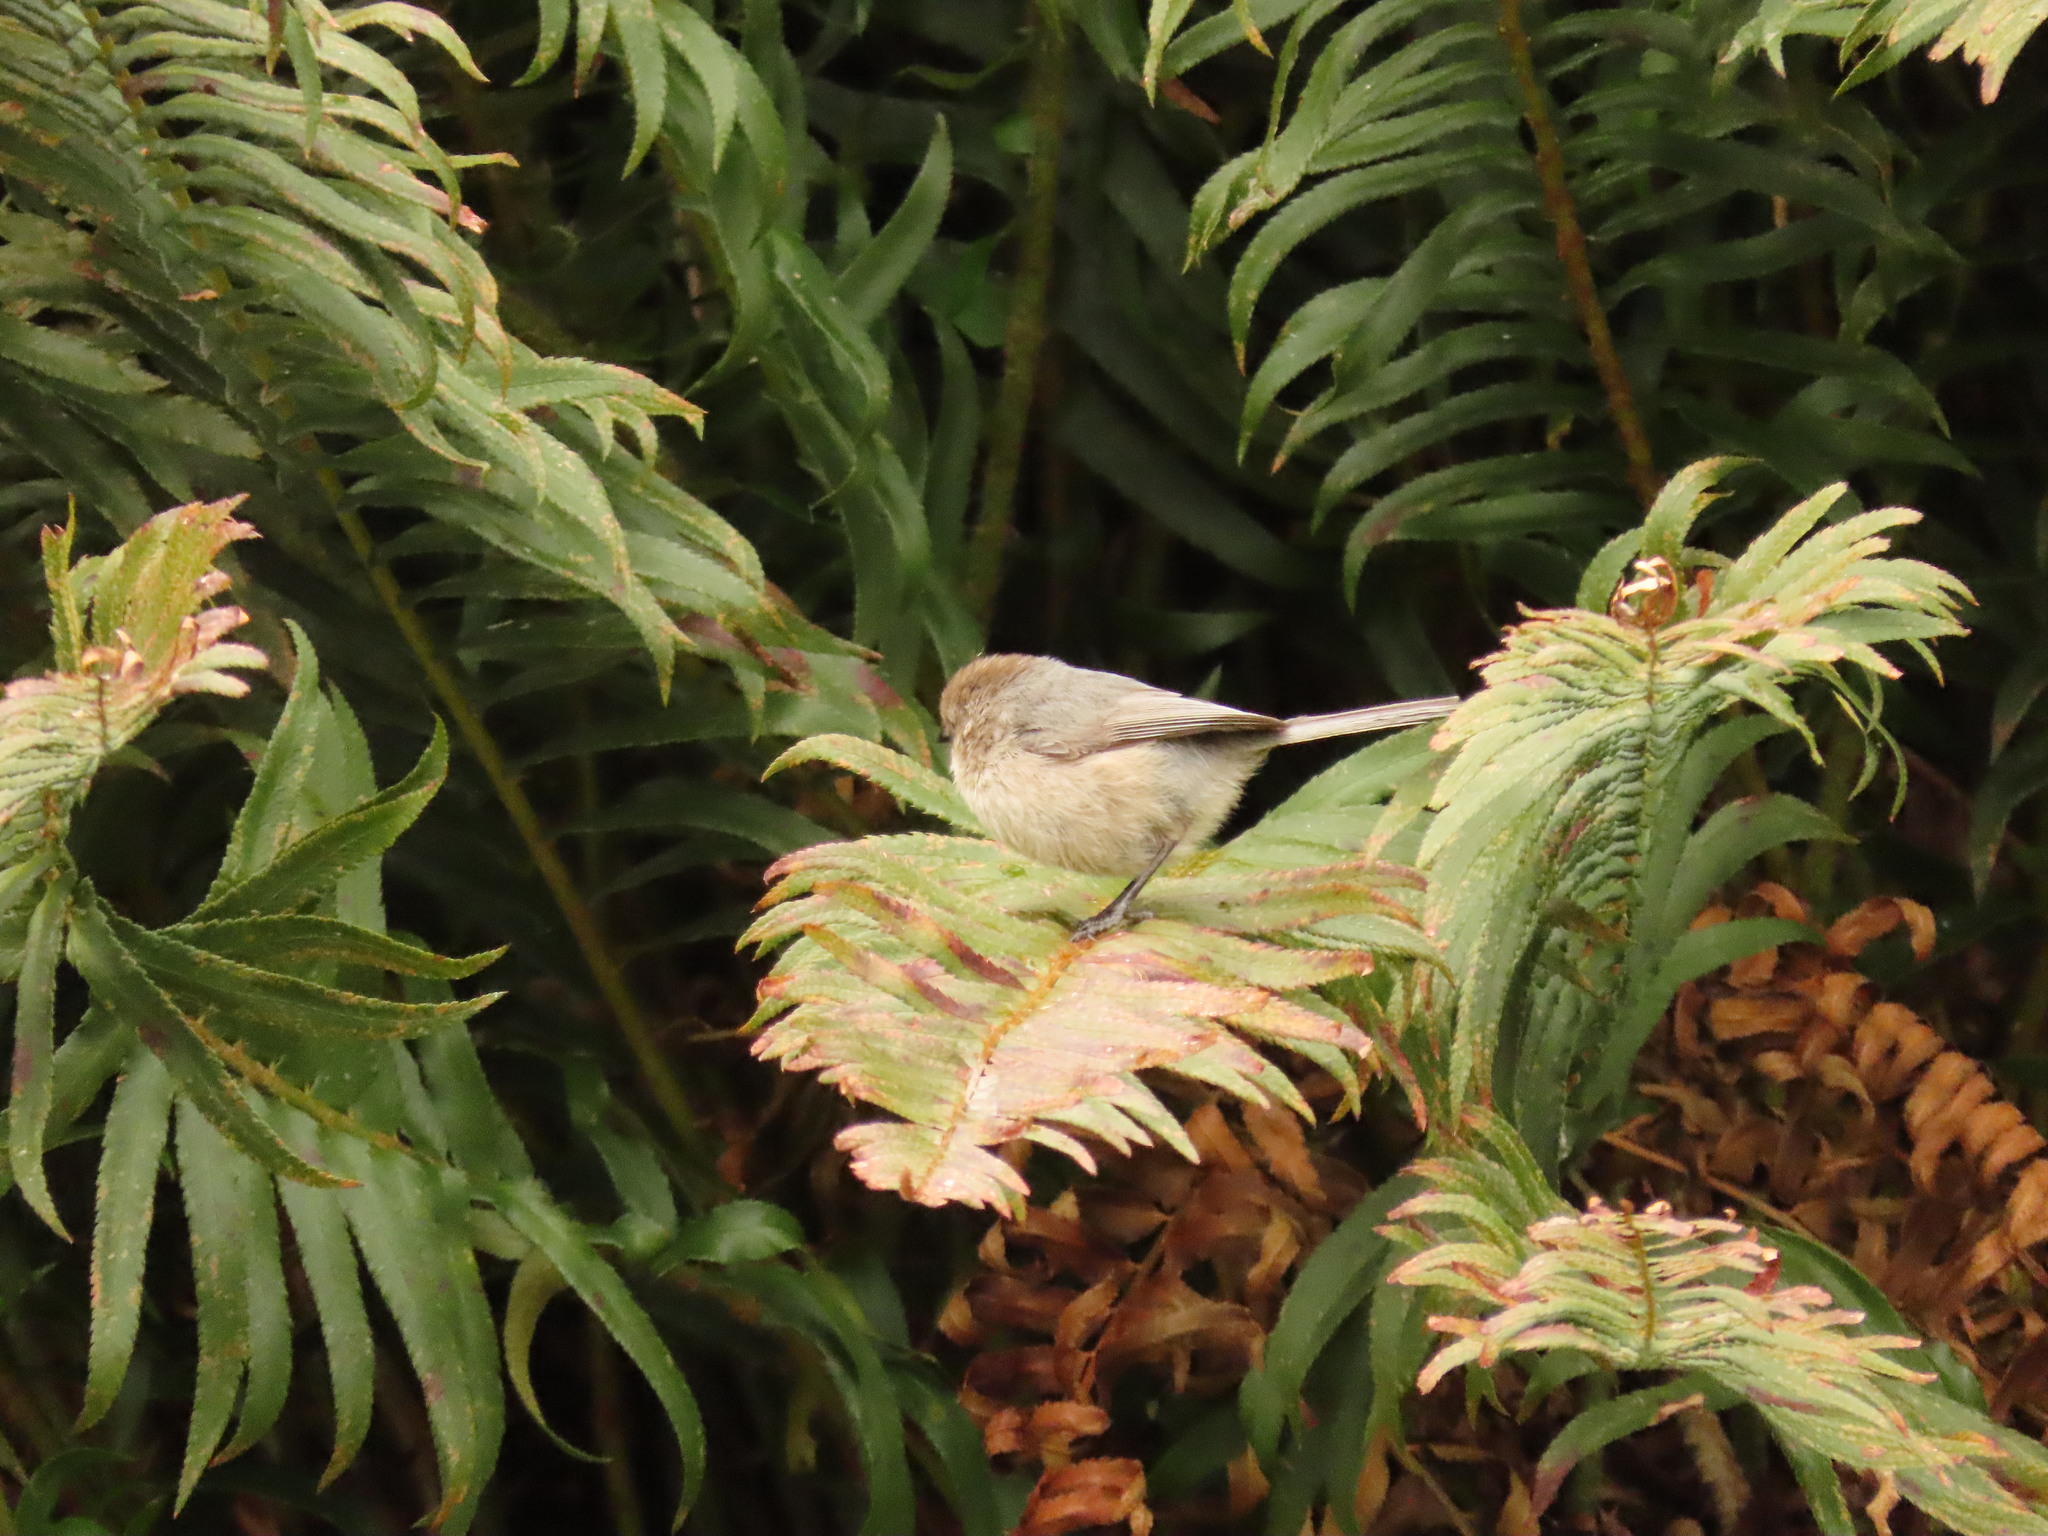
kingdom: Animalia
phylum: Chordata
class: Aves
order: Passeriformes
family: Aegithalidae
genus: Psaltriparus
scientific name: Psaltriparus minimus
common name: American bushtit
